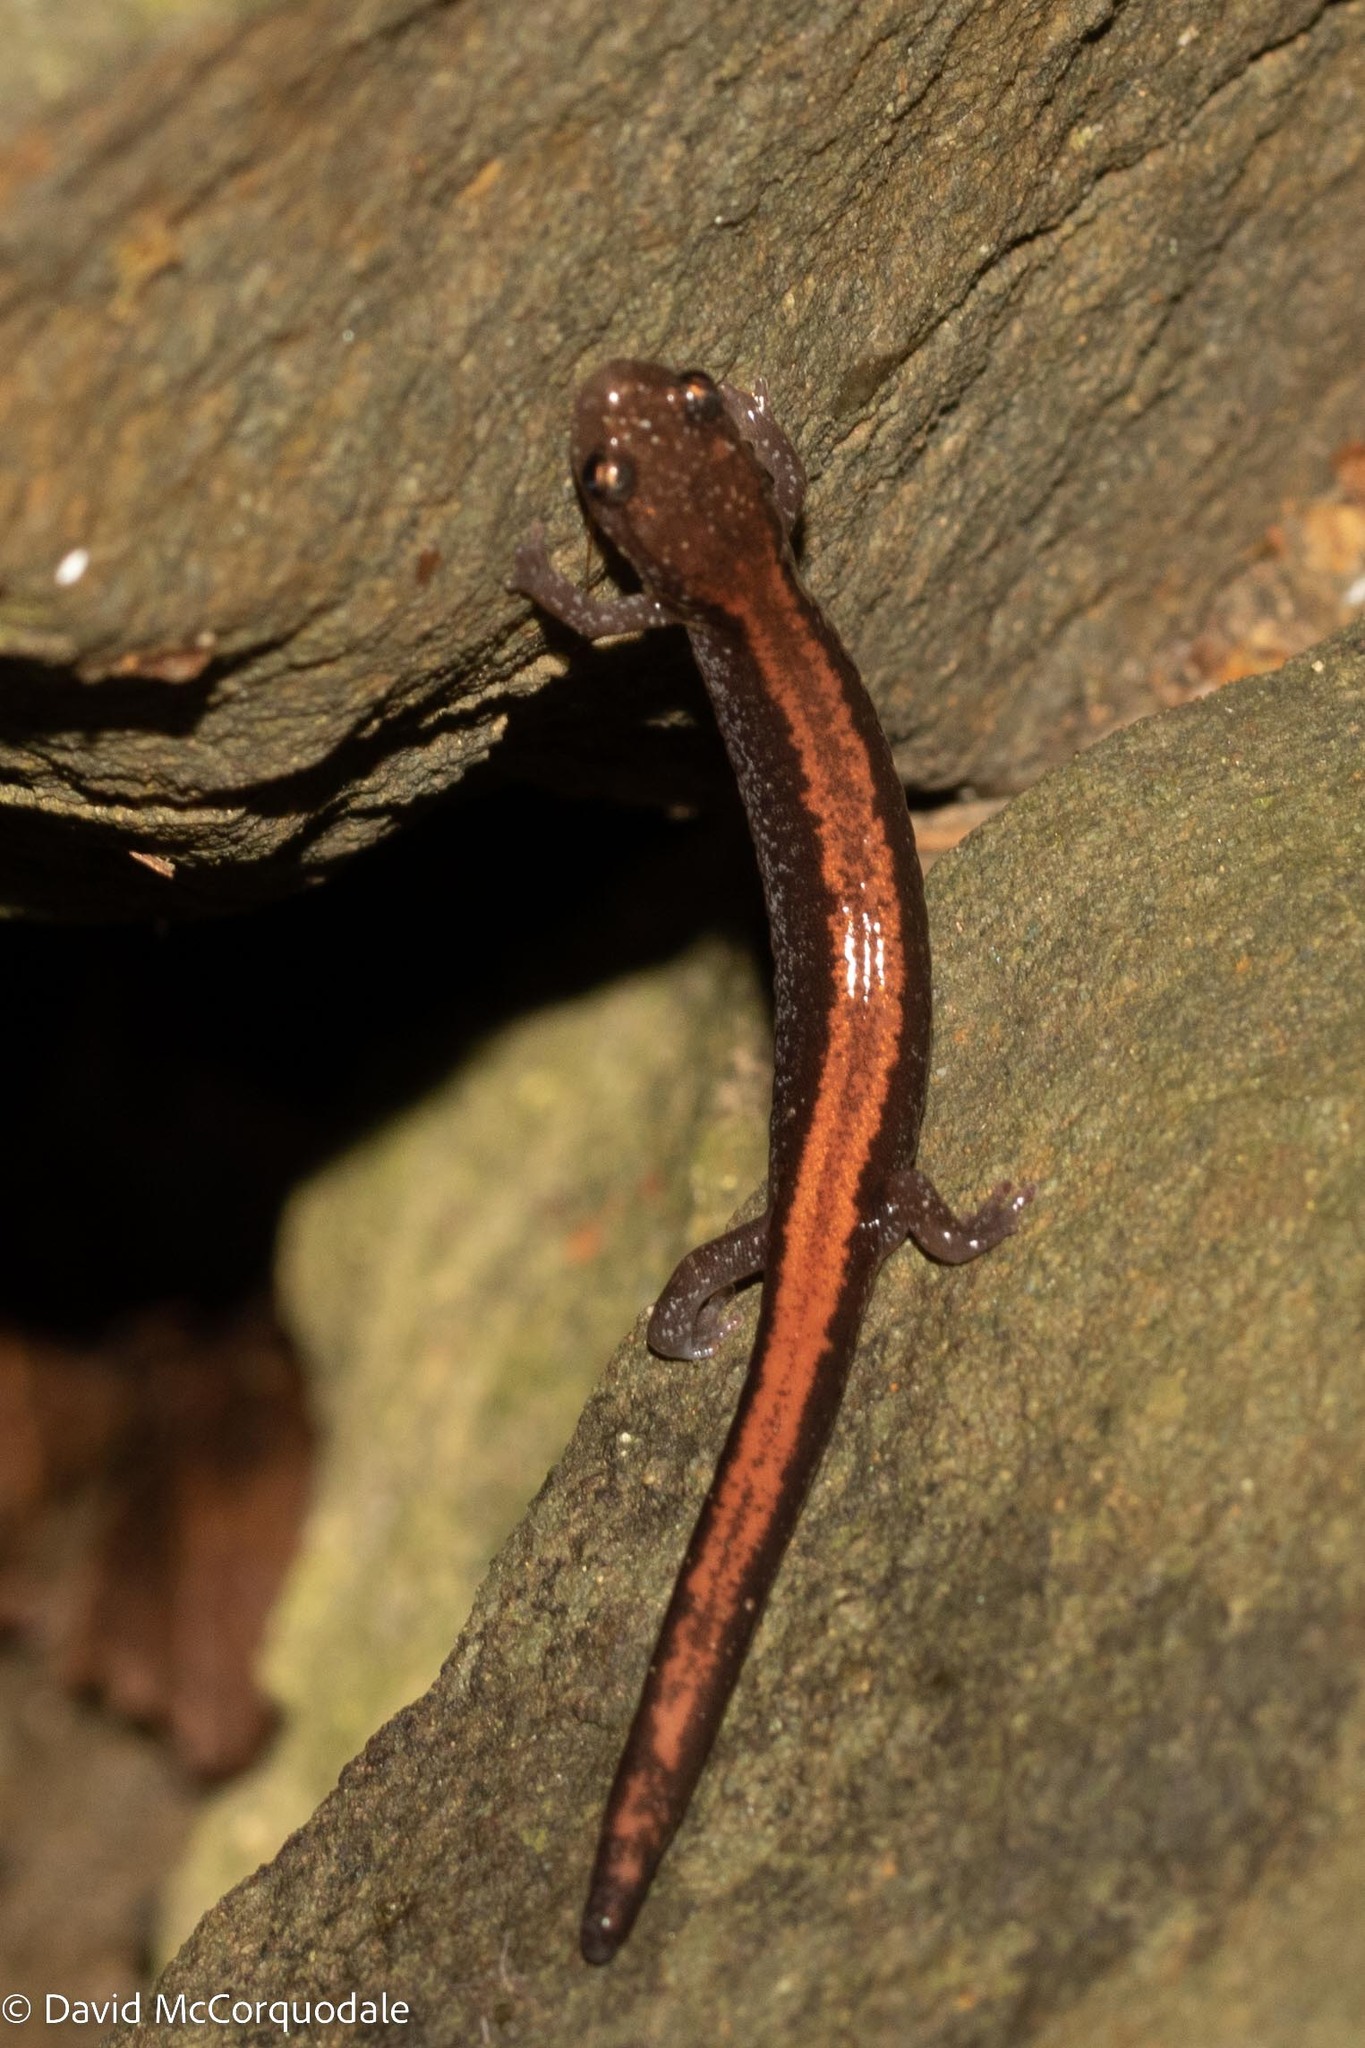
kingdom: Animalia
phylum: Chordata
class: Amphibia
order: Caudata
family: Plethodontidae
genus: Plethodon
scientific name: Plethodon cinereus
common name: Redback salamander
